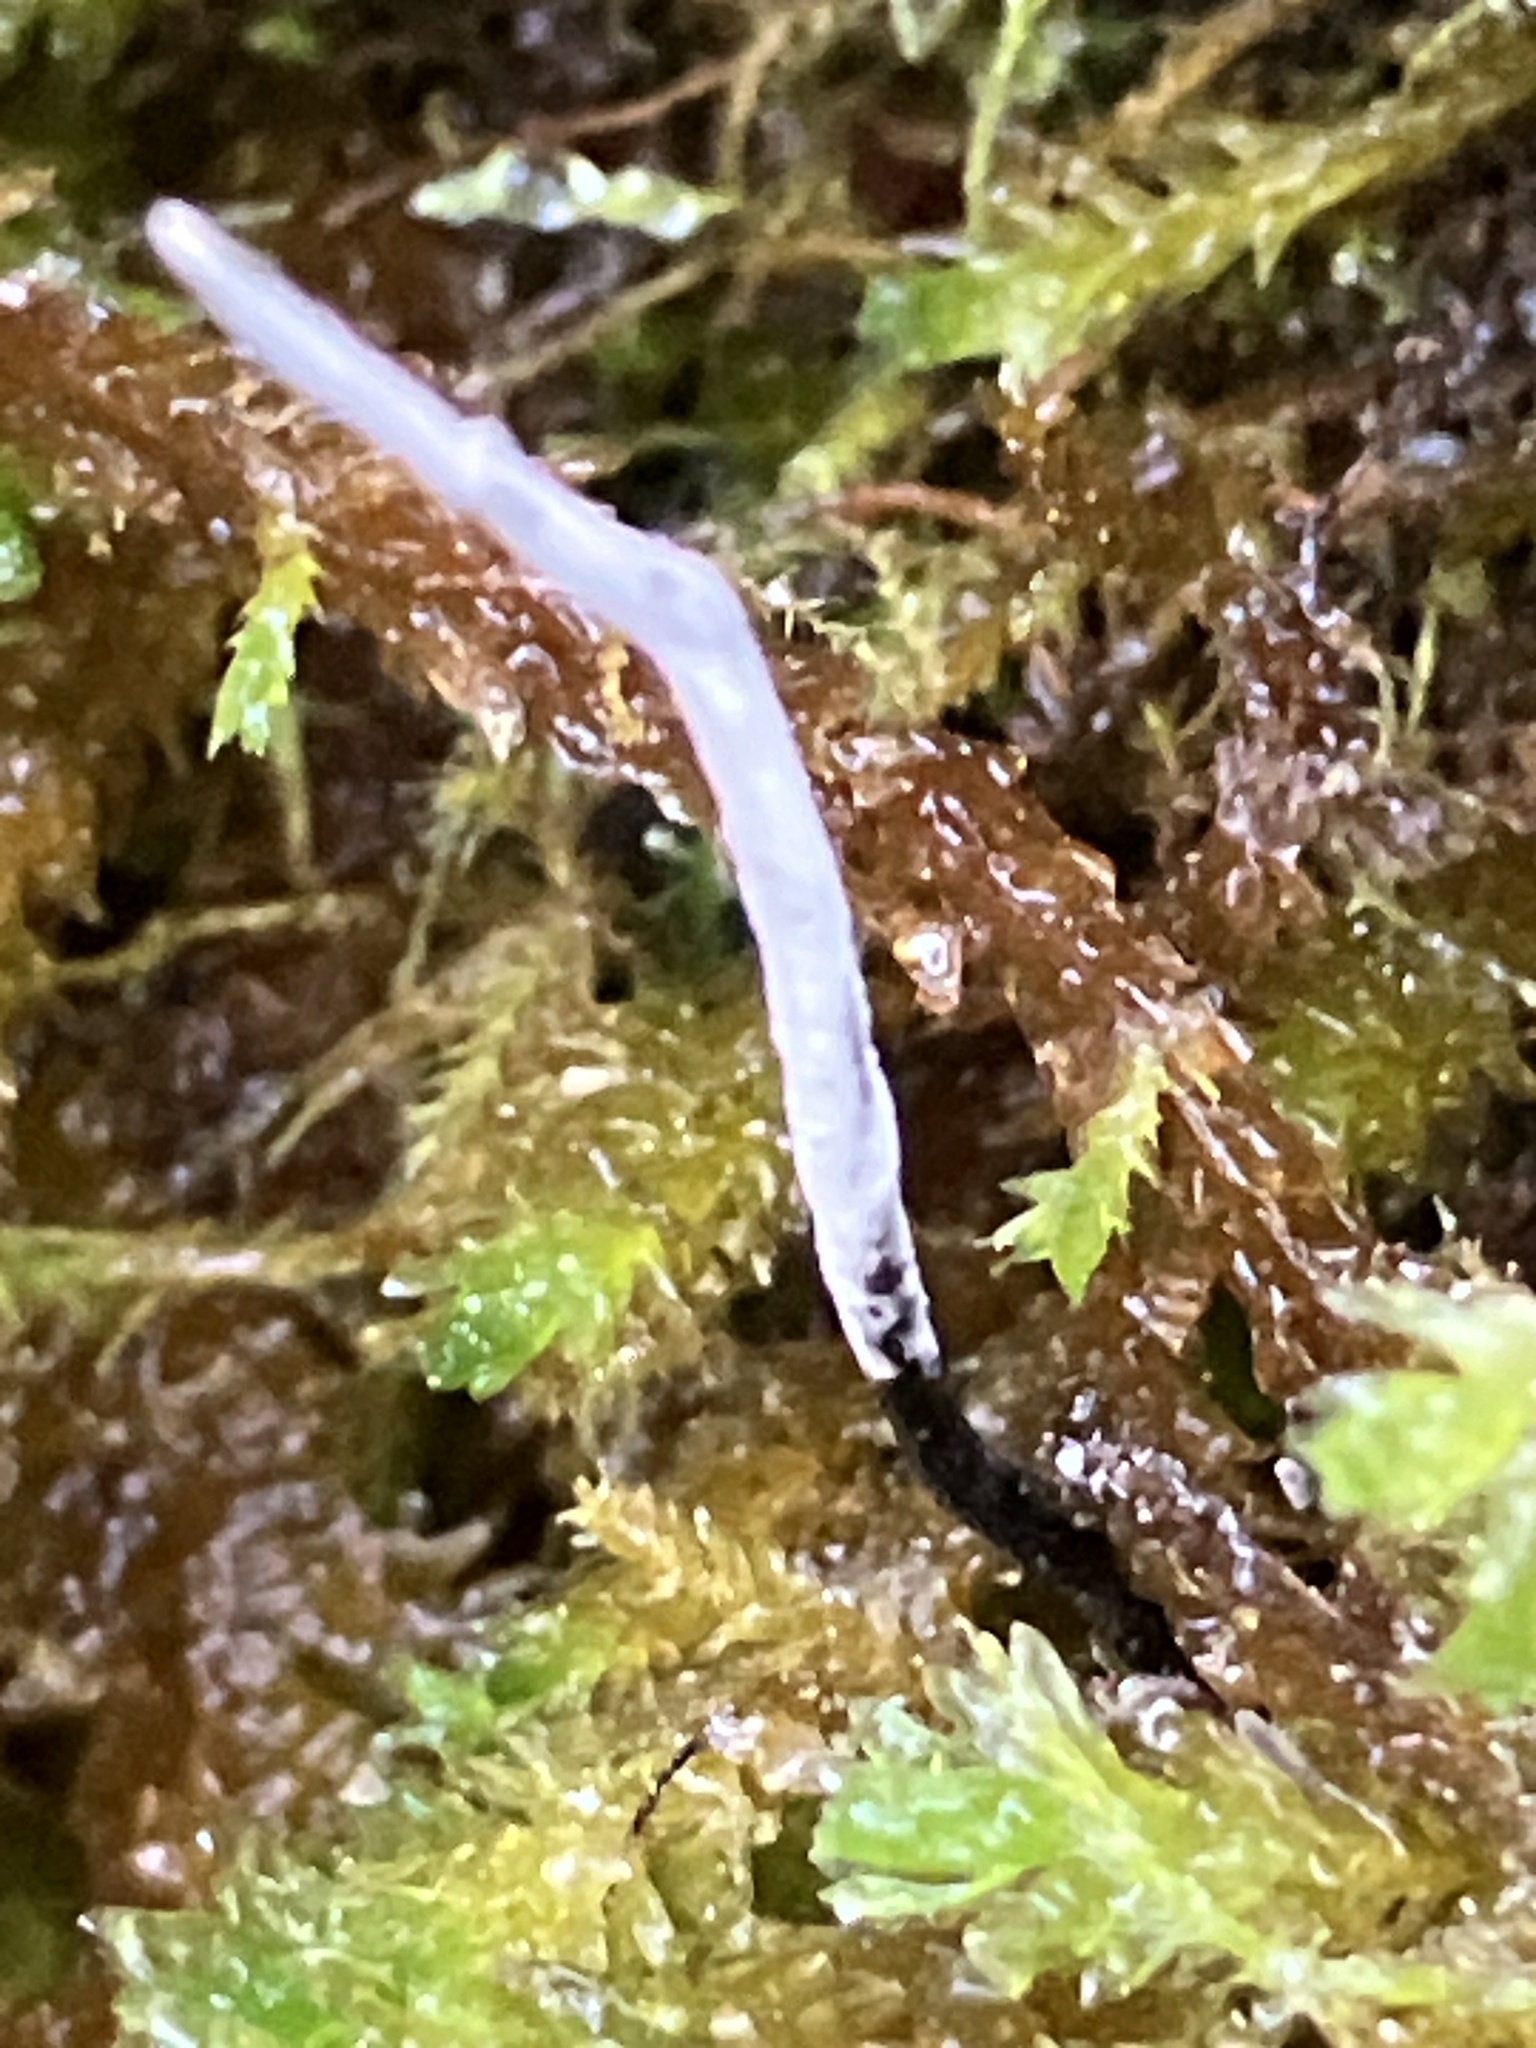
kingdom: Fungi
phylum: Ascomycota
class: Sordariomycetes
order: Xylariales
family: Xylariaceae
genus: Xylaria
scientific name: Xylaria hypoxylon
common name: Candle-snuff fungus
